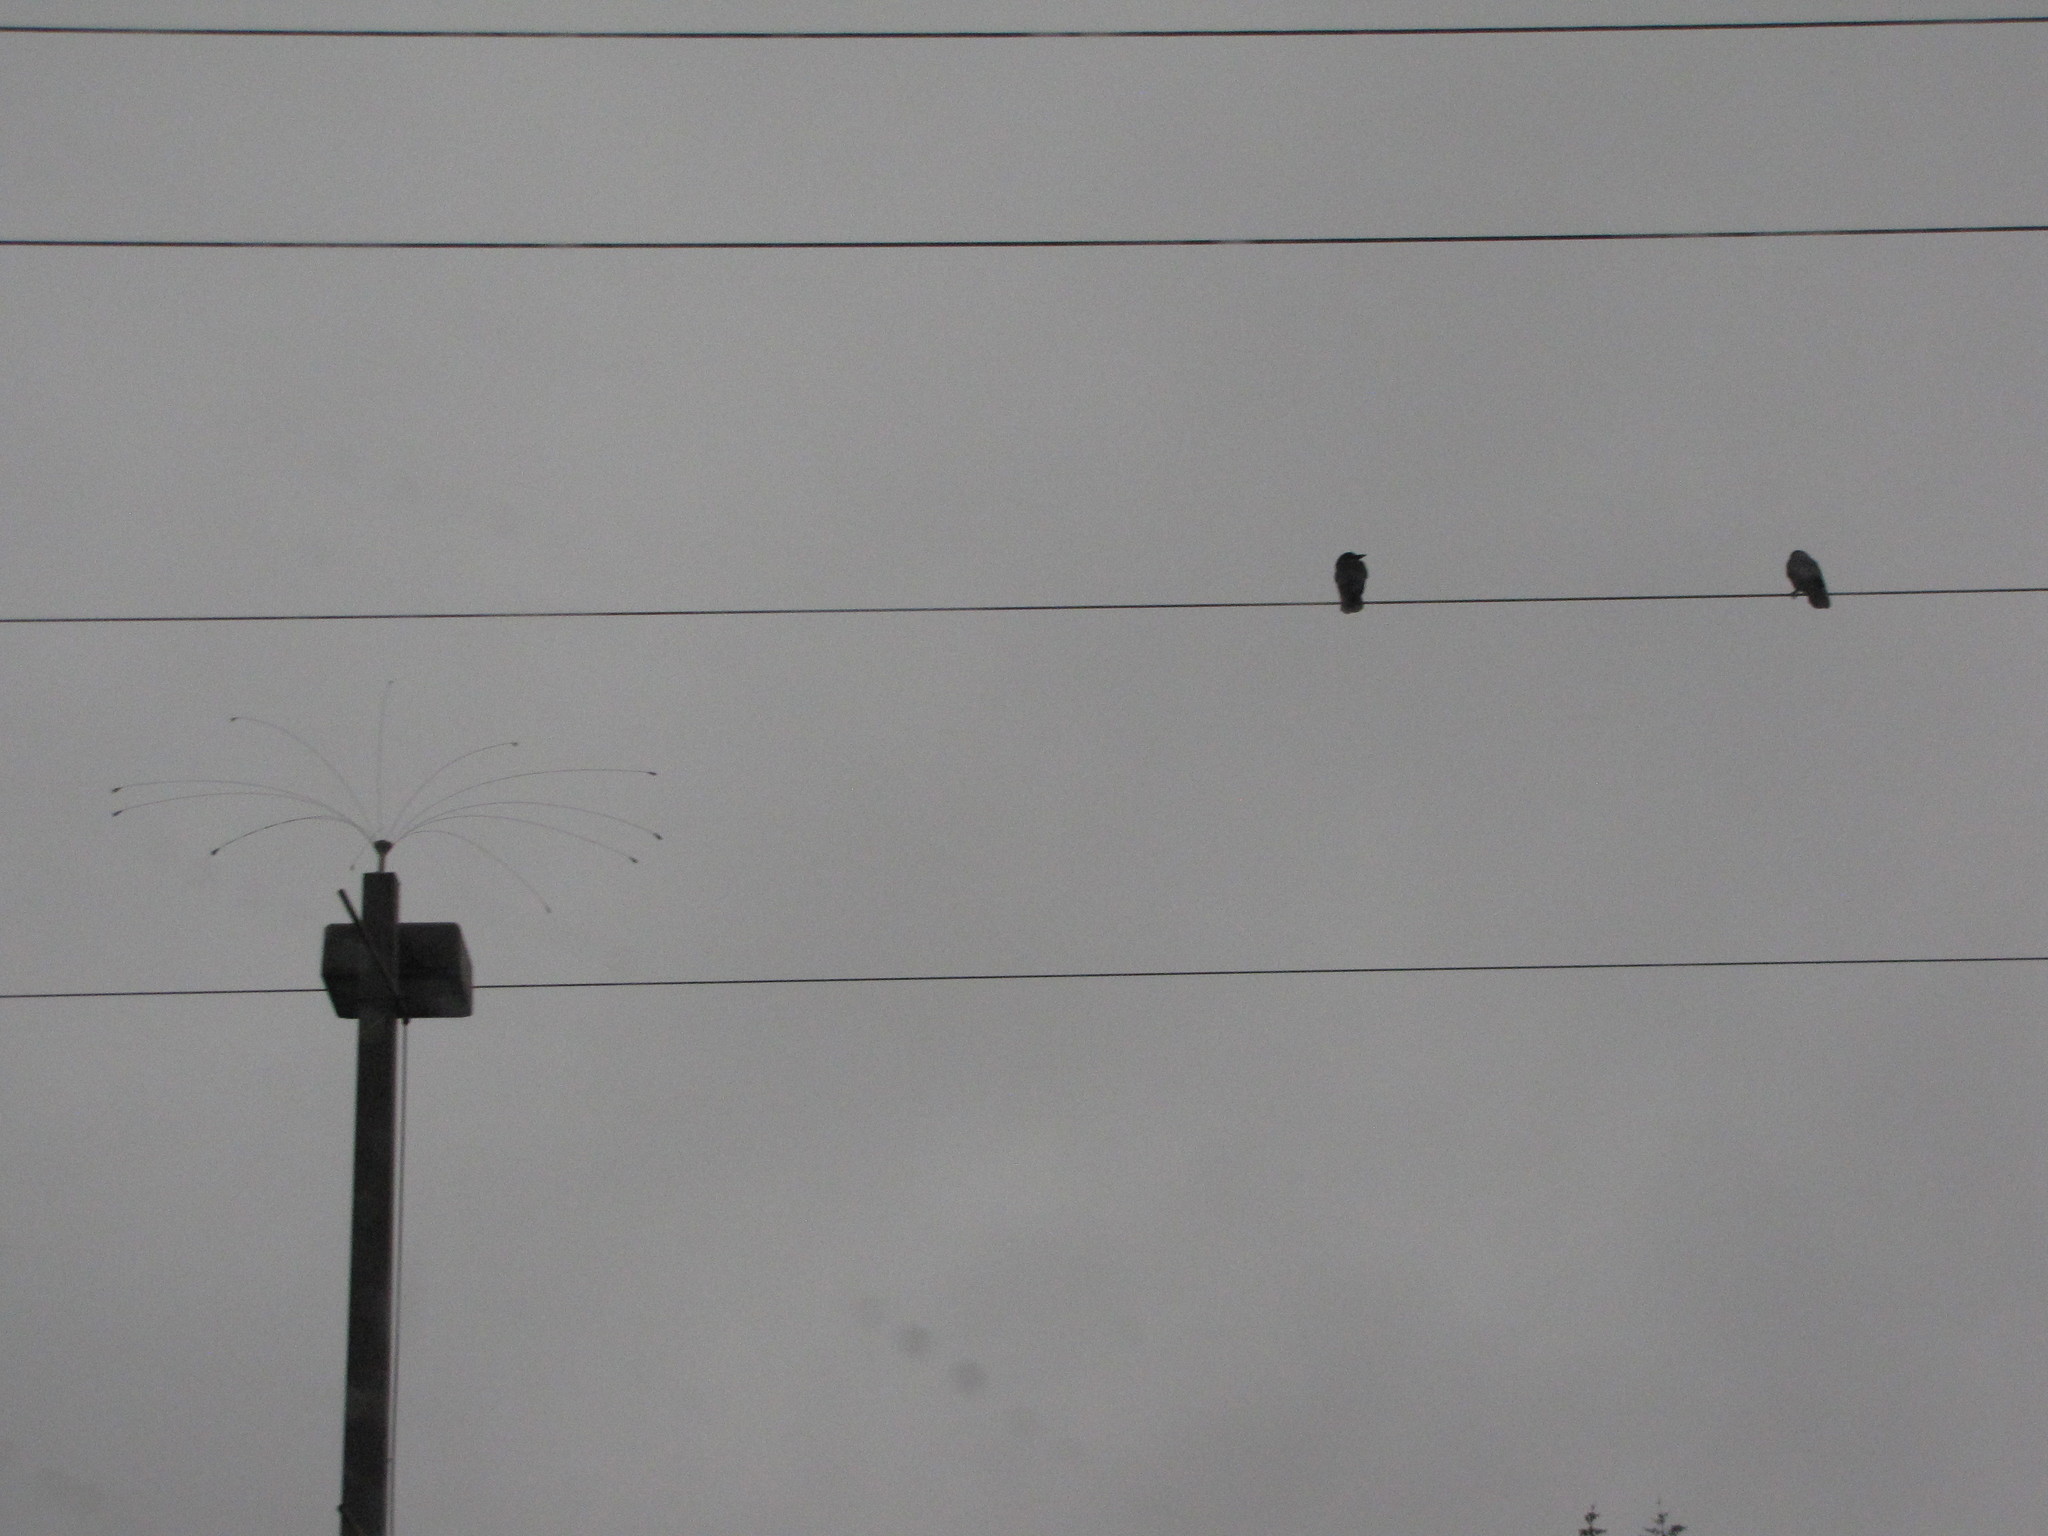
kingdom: Animalia
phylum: Chordata
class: Aves
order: Passeriformes
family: Corvidae
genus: Corvus
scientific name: Corvus brachyrhynchos
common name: American crow
